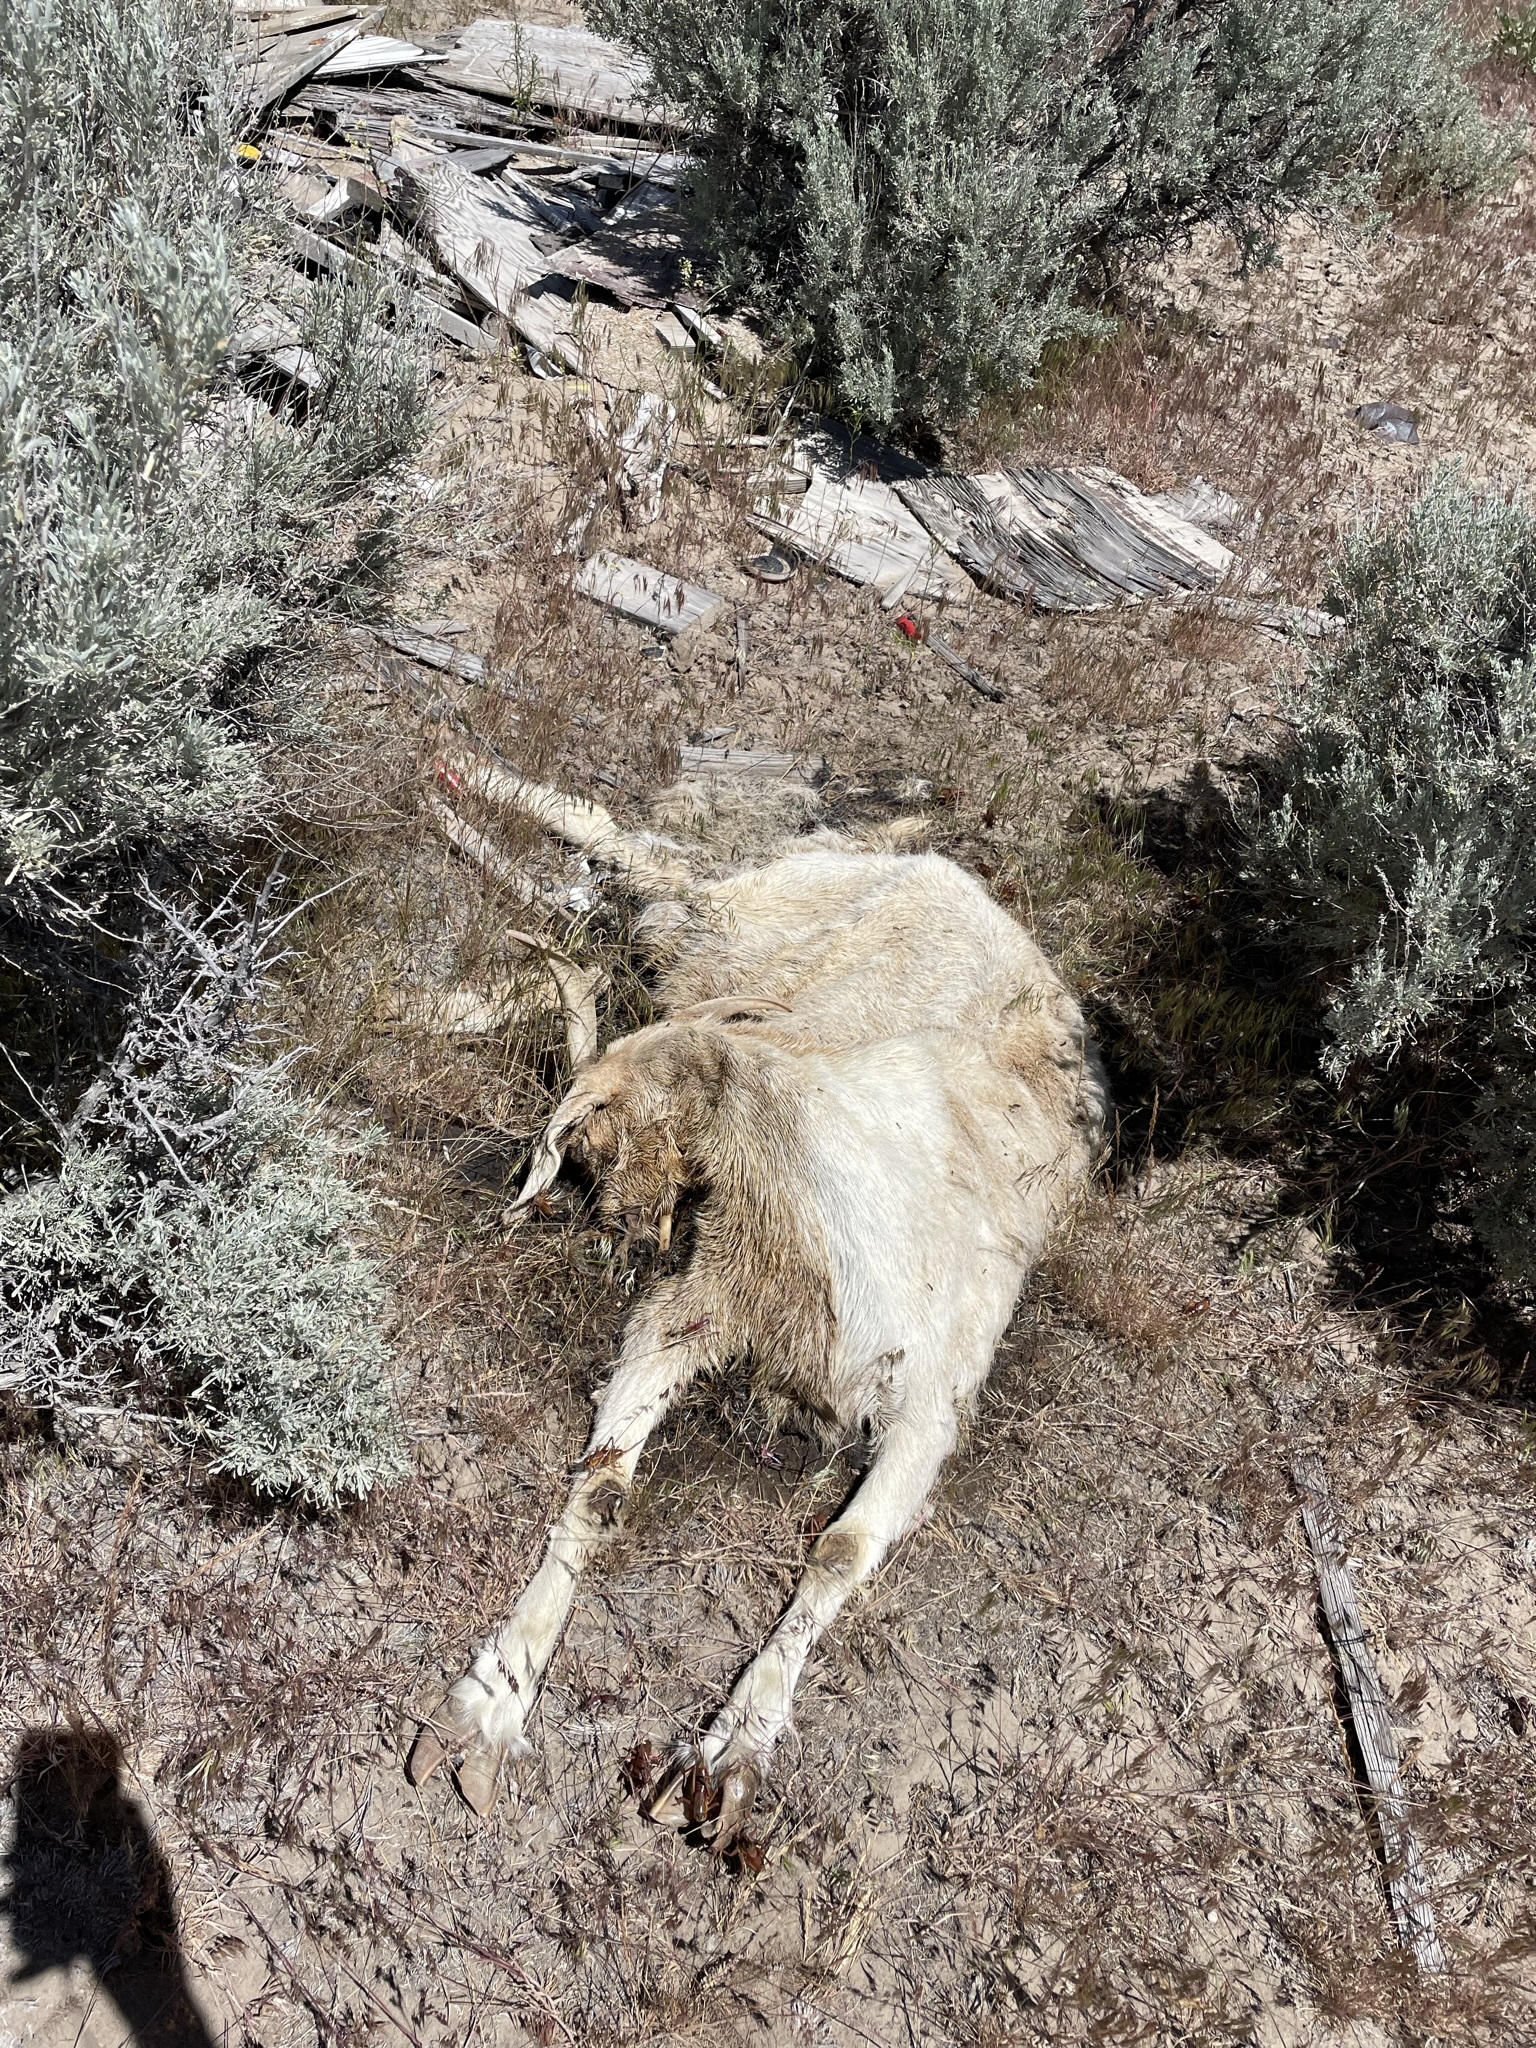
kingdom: Animalia
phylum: Chordata
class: Mammalia
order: Artiodactyla
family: Bovidae
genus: Capra
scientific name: Capra hircus
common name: Domestic goat
